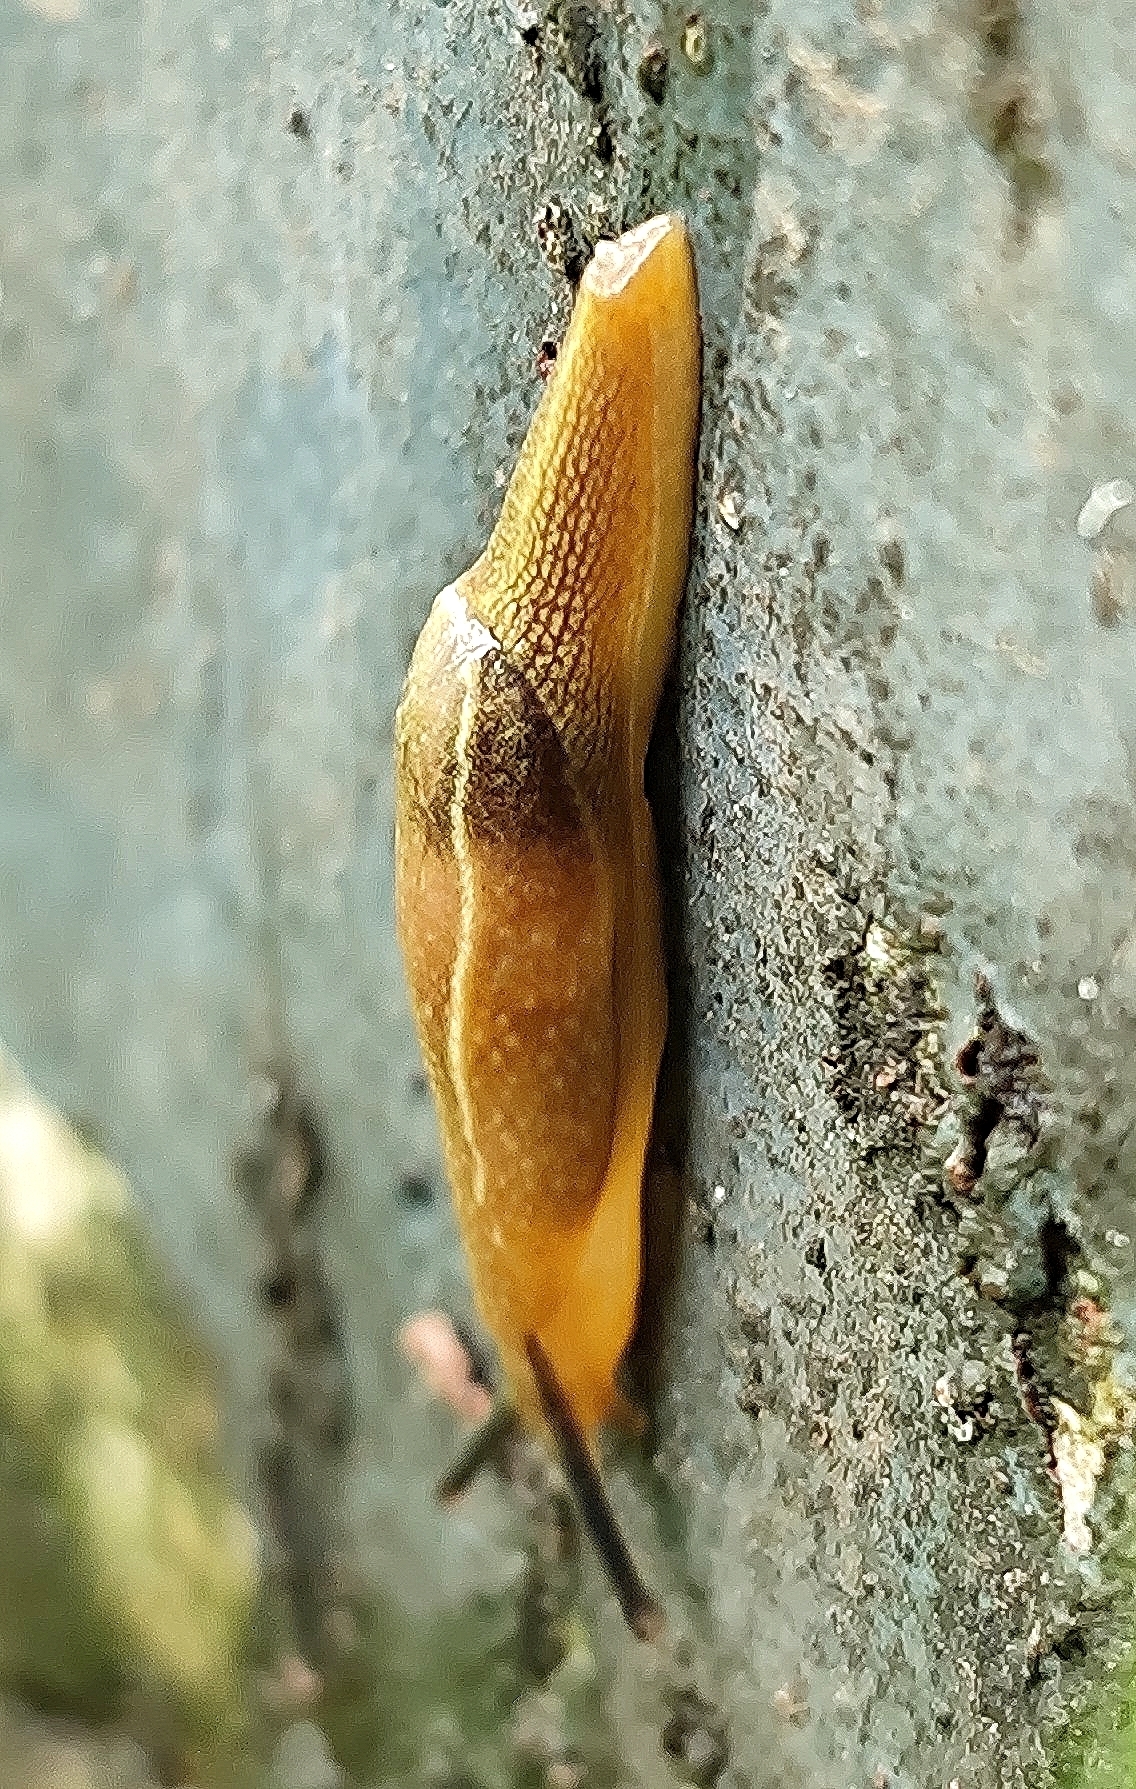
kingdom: Animalia
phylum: Mollusca
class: Gastropoda
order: Stylommatophora
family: Ariophantidae
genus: Mariaella
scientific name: Mariaella dussumieri
